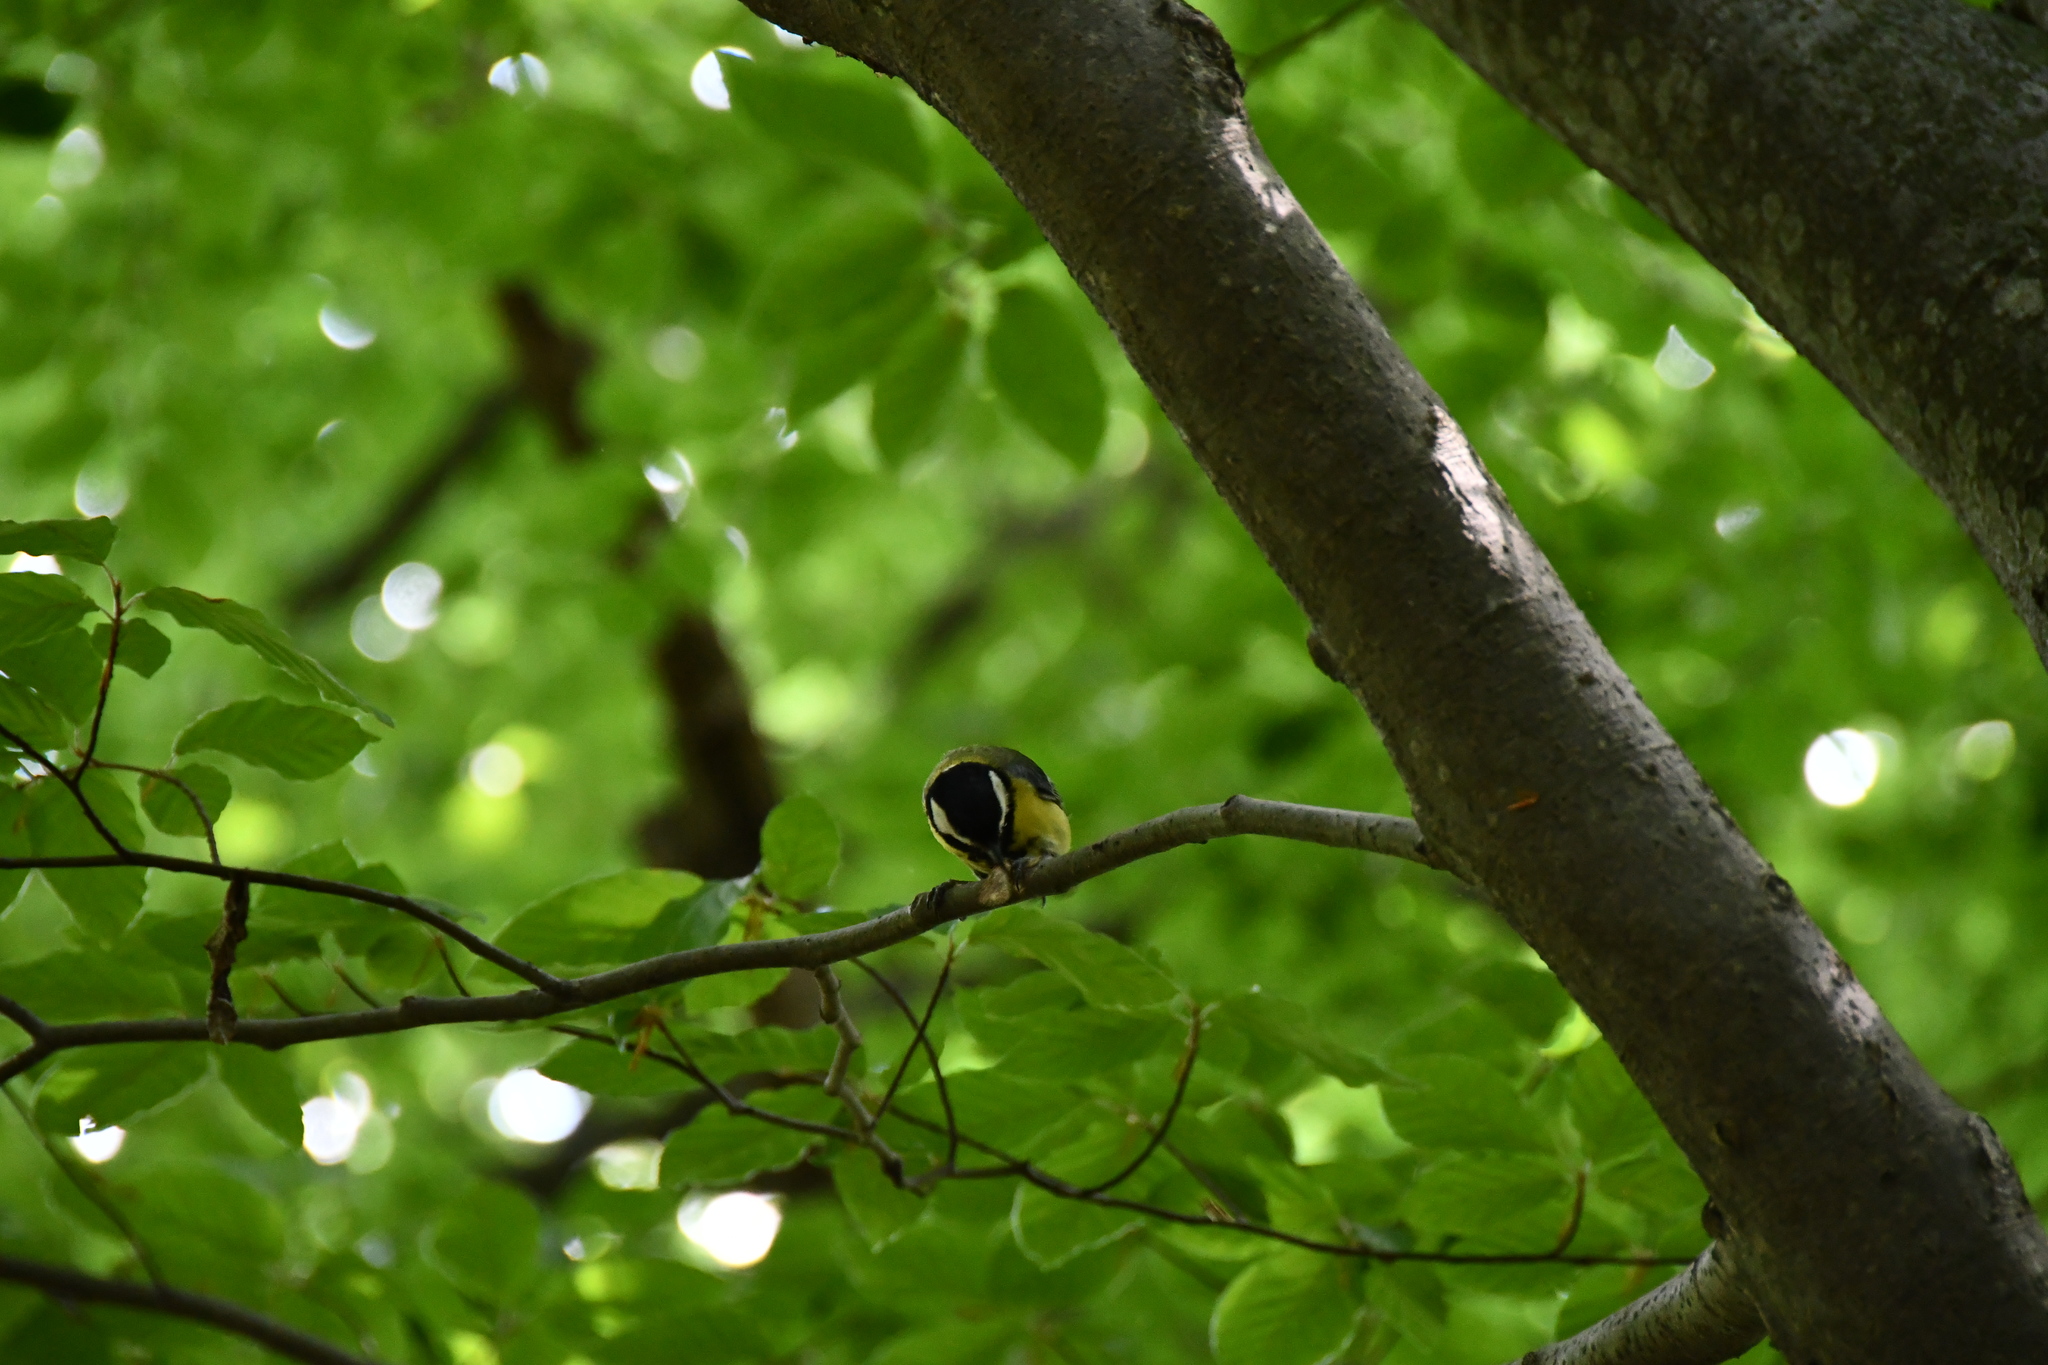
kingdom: Animalia
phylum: Chordata
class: Aves
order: Passeriformes
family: Paridae
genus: Parus
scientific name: Parus major
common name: Great tit
